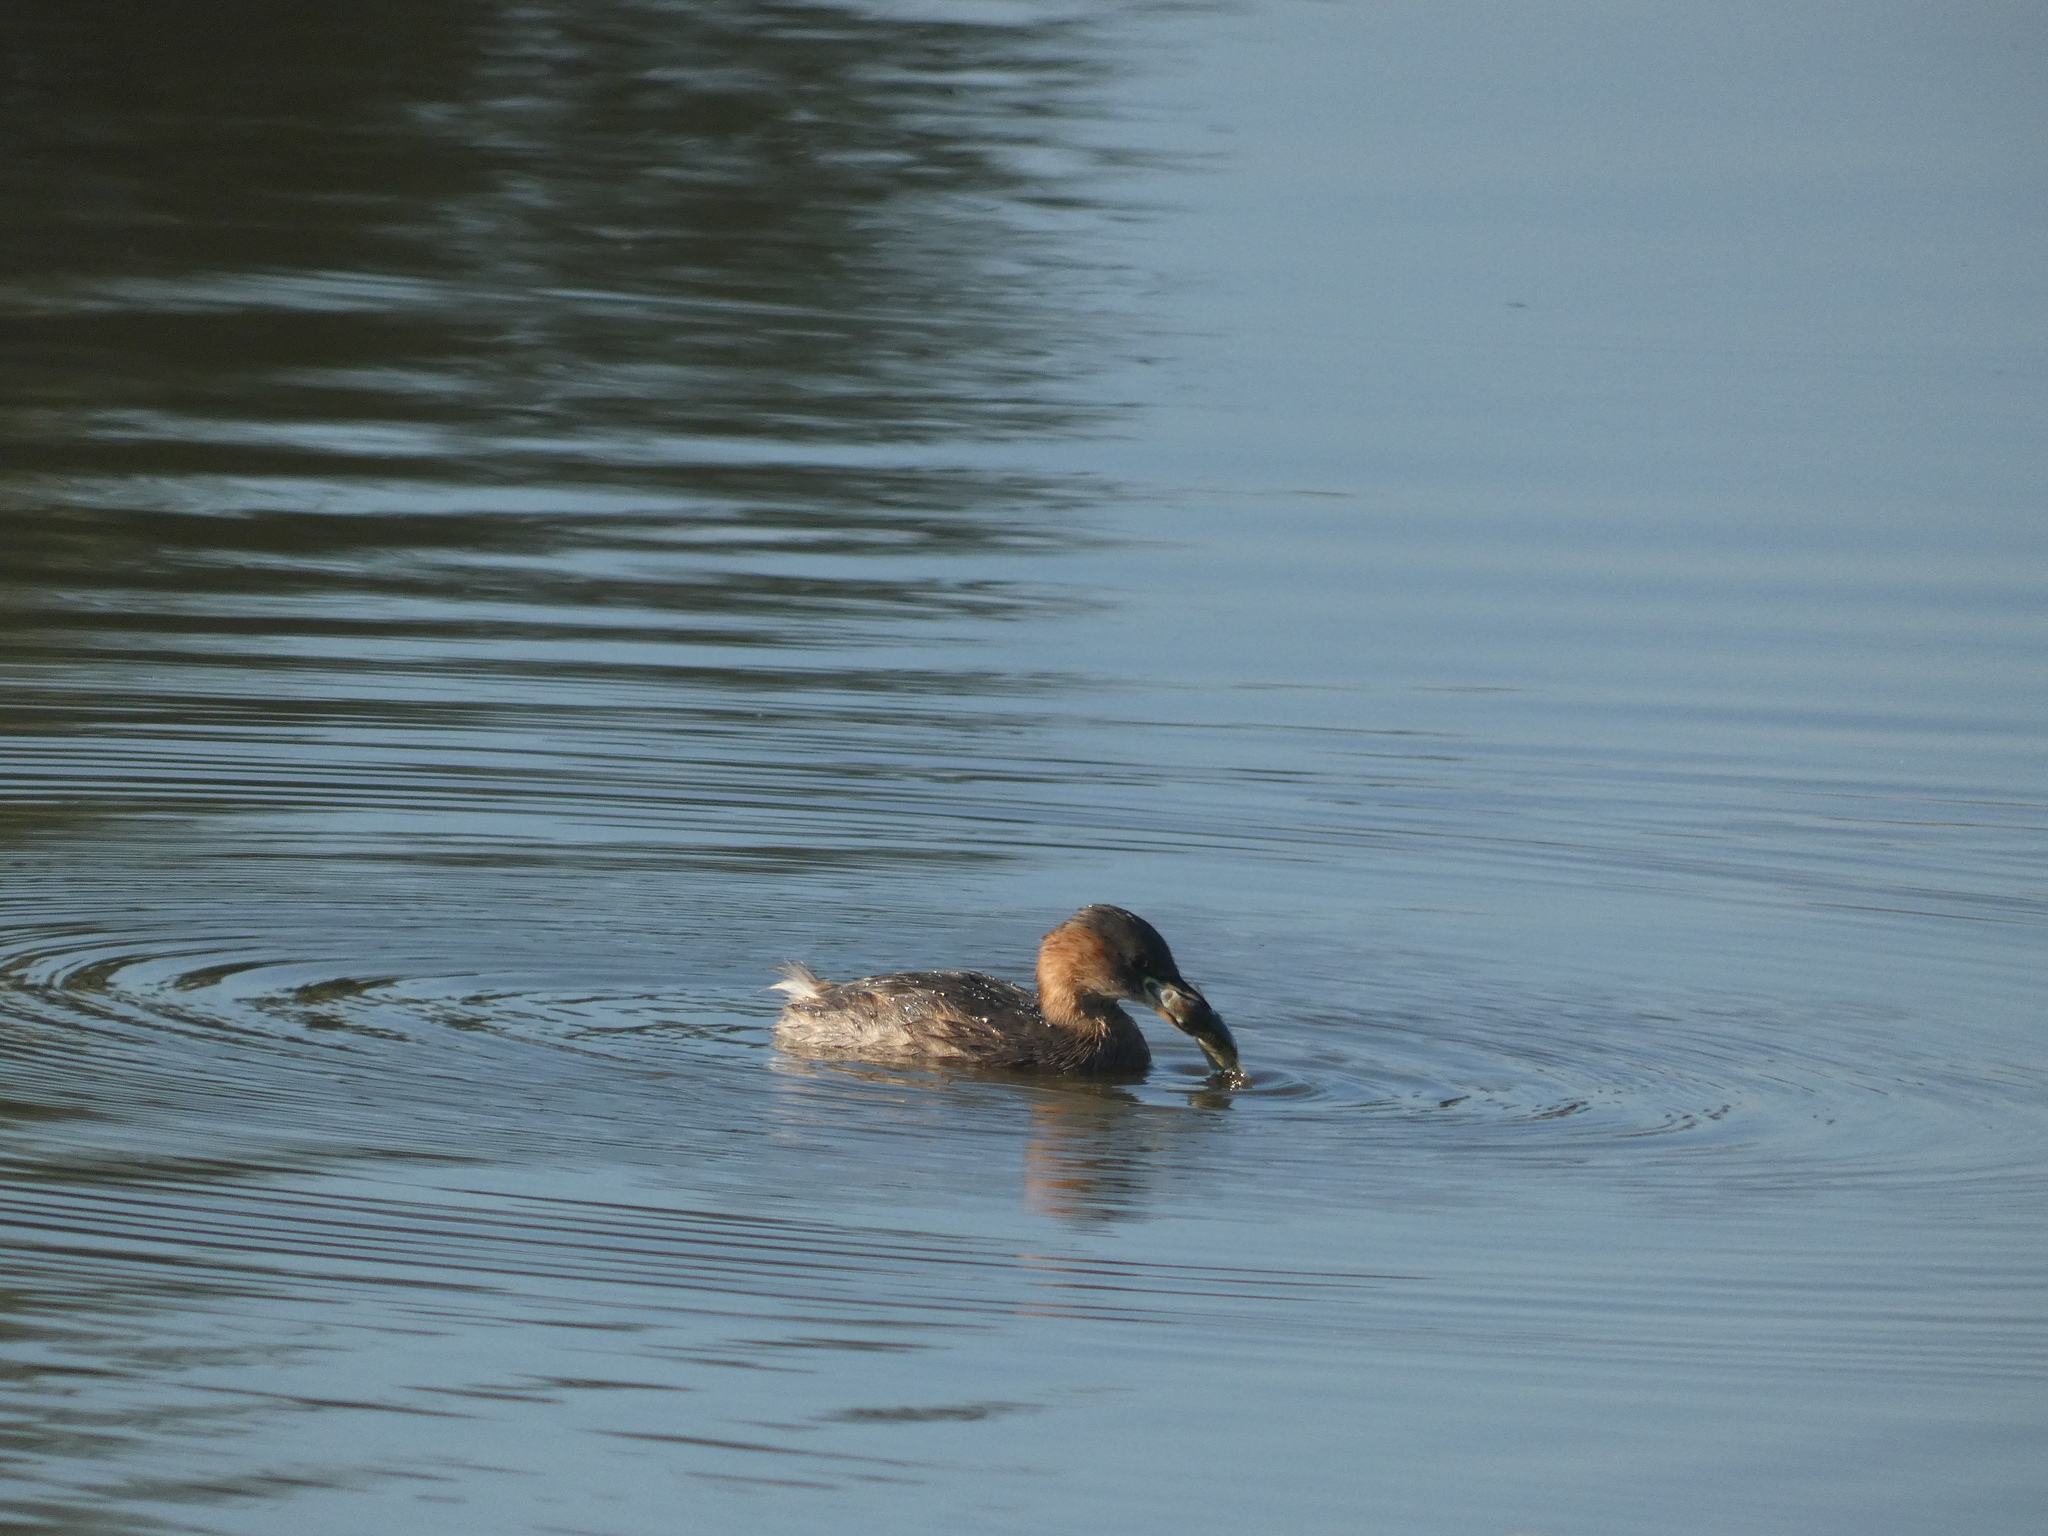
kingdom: Animalia
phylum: Chordata
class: Aves
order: Podicipediformes
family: Podicipedidae
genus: Tachybaptus
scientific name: Tachybaptus ruficollis
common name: Little grebe
